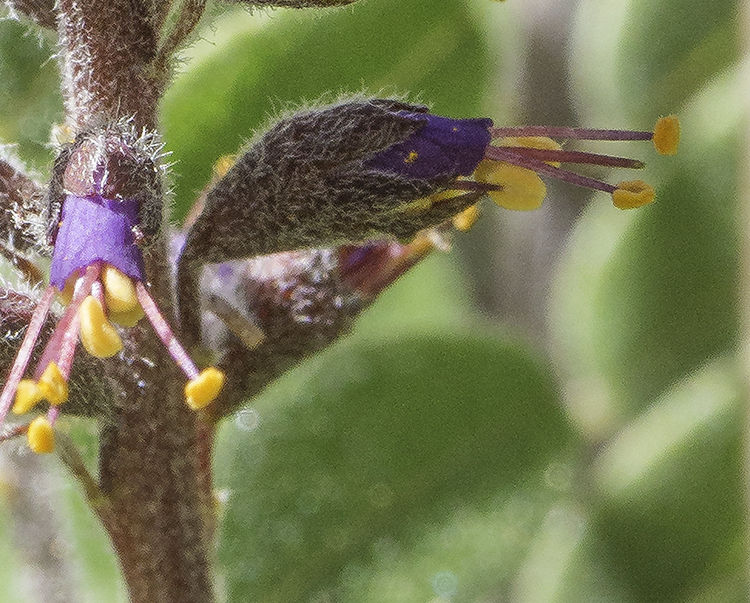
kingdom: Plantae
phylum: Tracheophyta
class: Magnoliopsida
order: Fabales
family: Fabaceae
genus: Amorpha
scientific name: Amorpha canescens
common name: Leadplant
